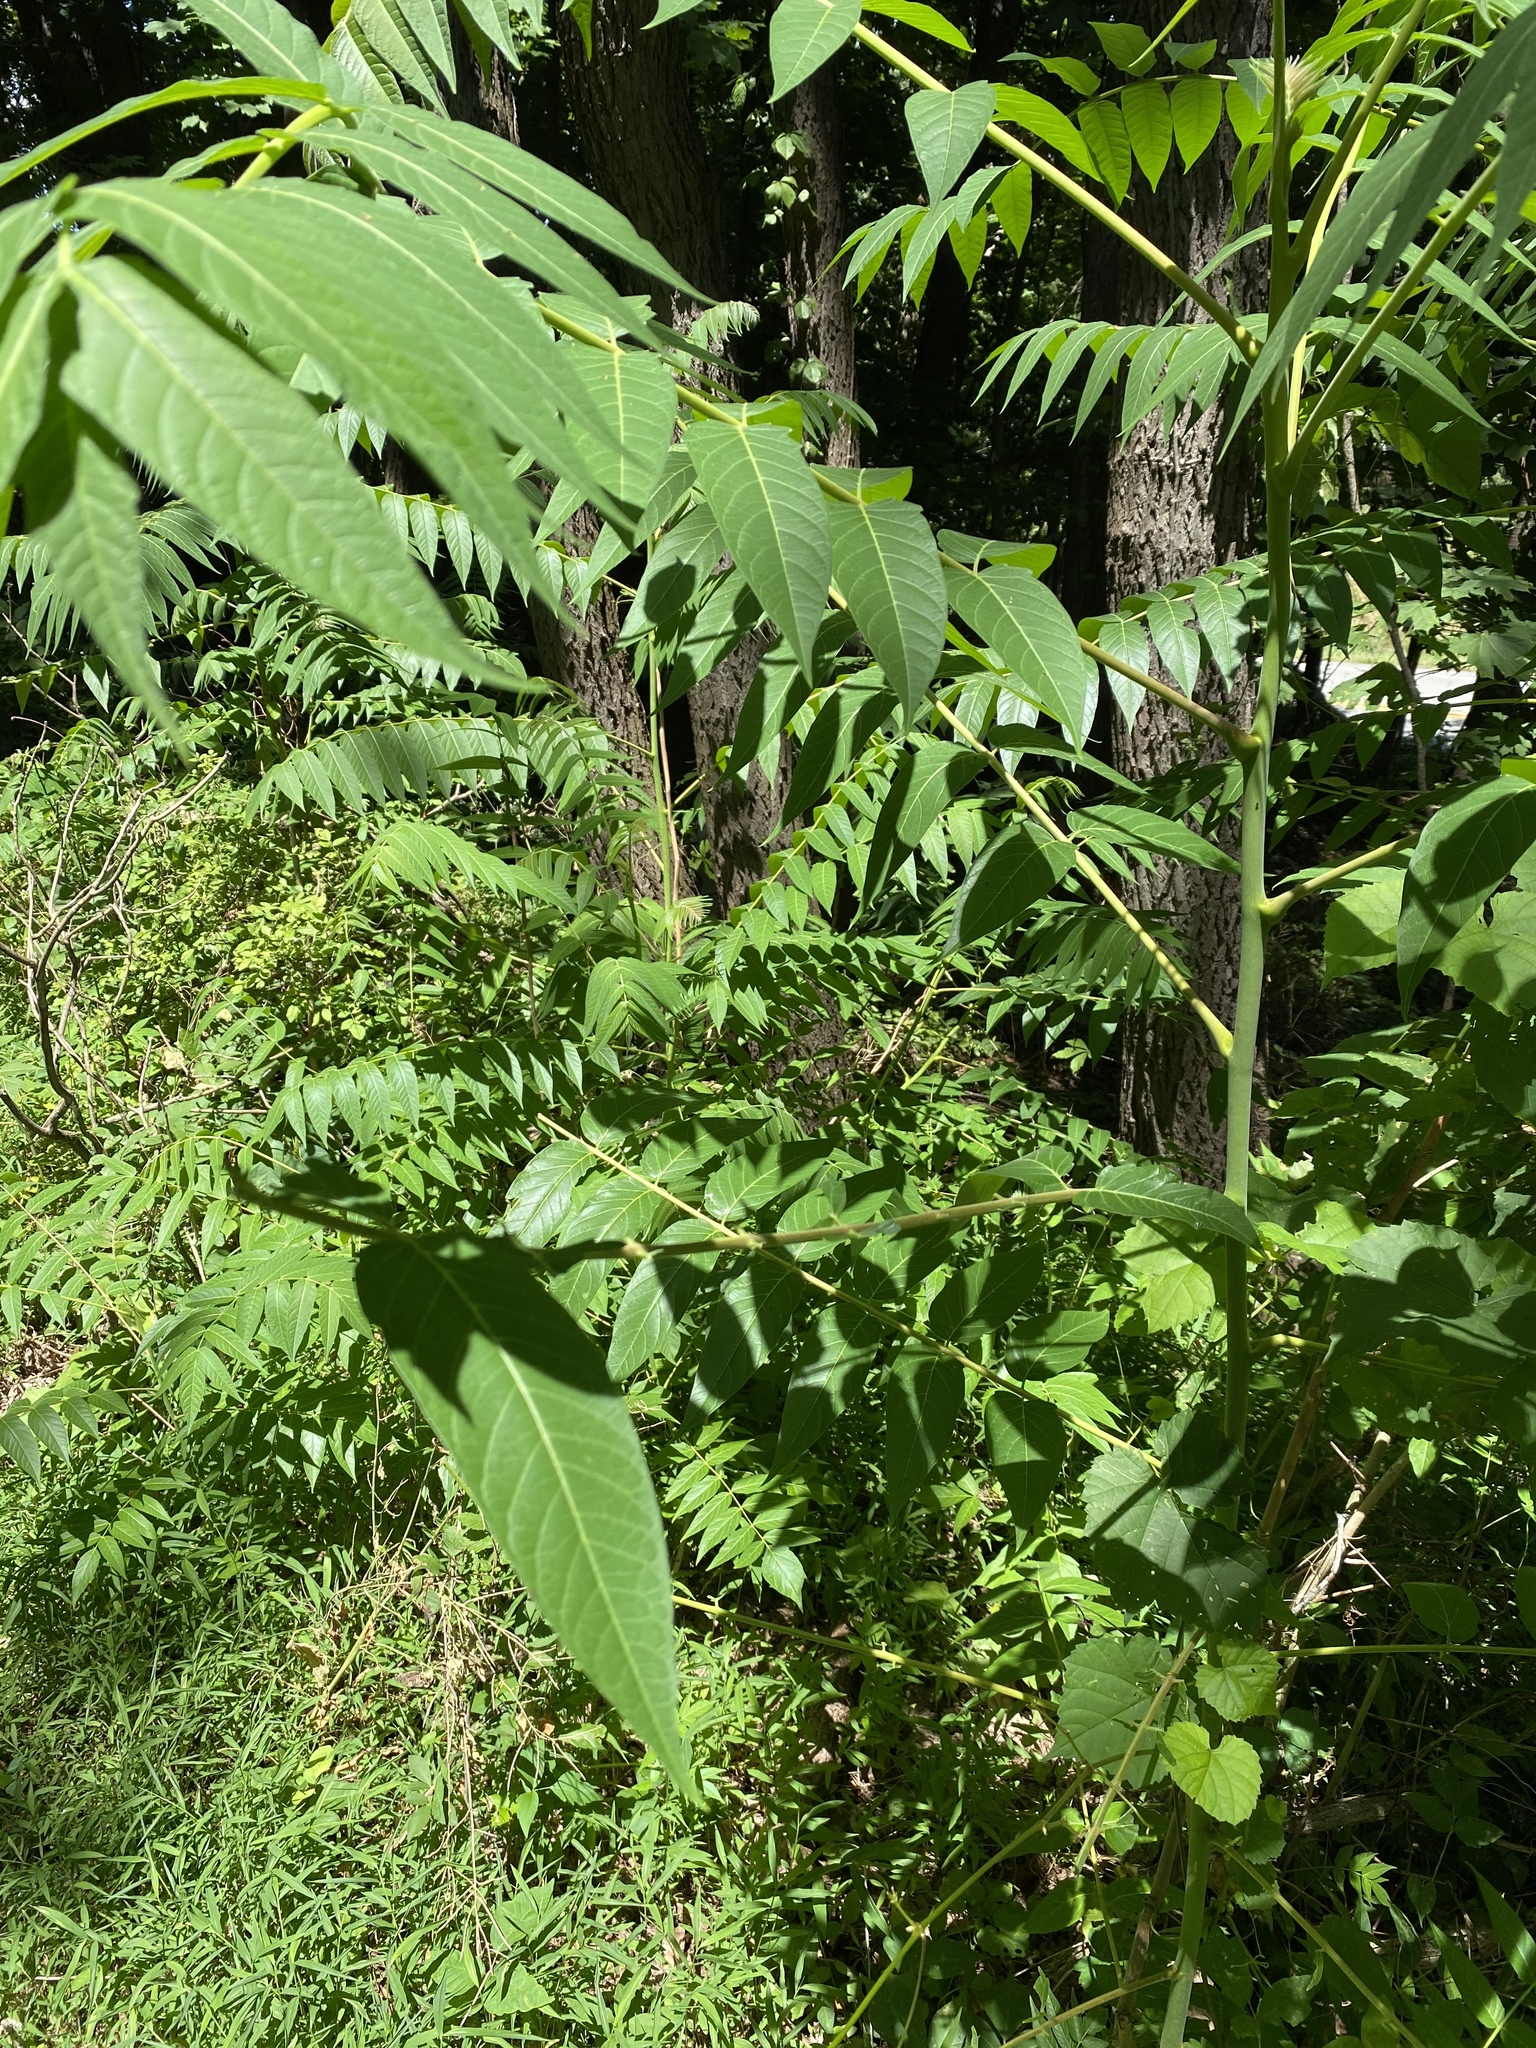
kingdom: Plantae
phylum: Tracheophyta
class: Magnoliopsida
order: Sapindales
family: Simaroubaceae
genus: Ailanthus
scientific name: Ailanthus altissima
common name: Tree-of-heaven
